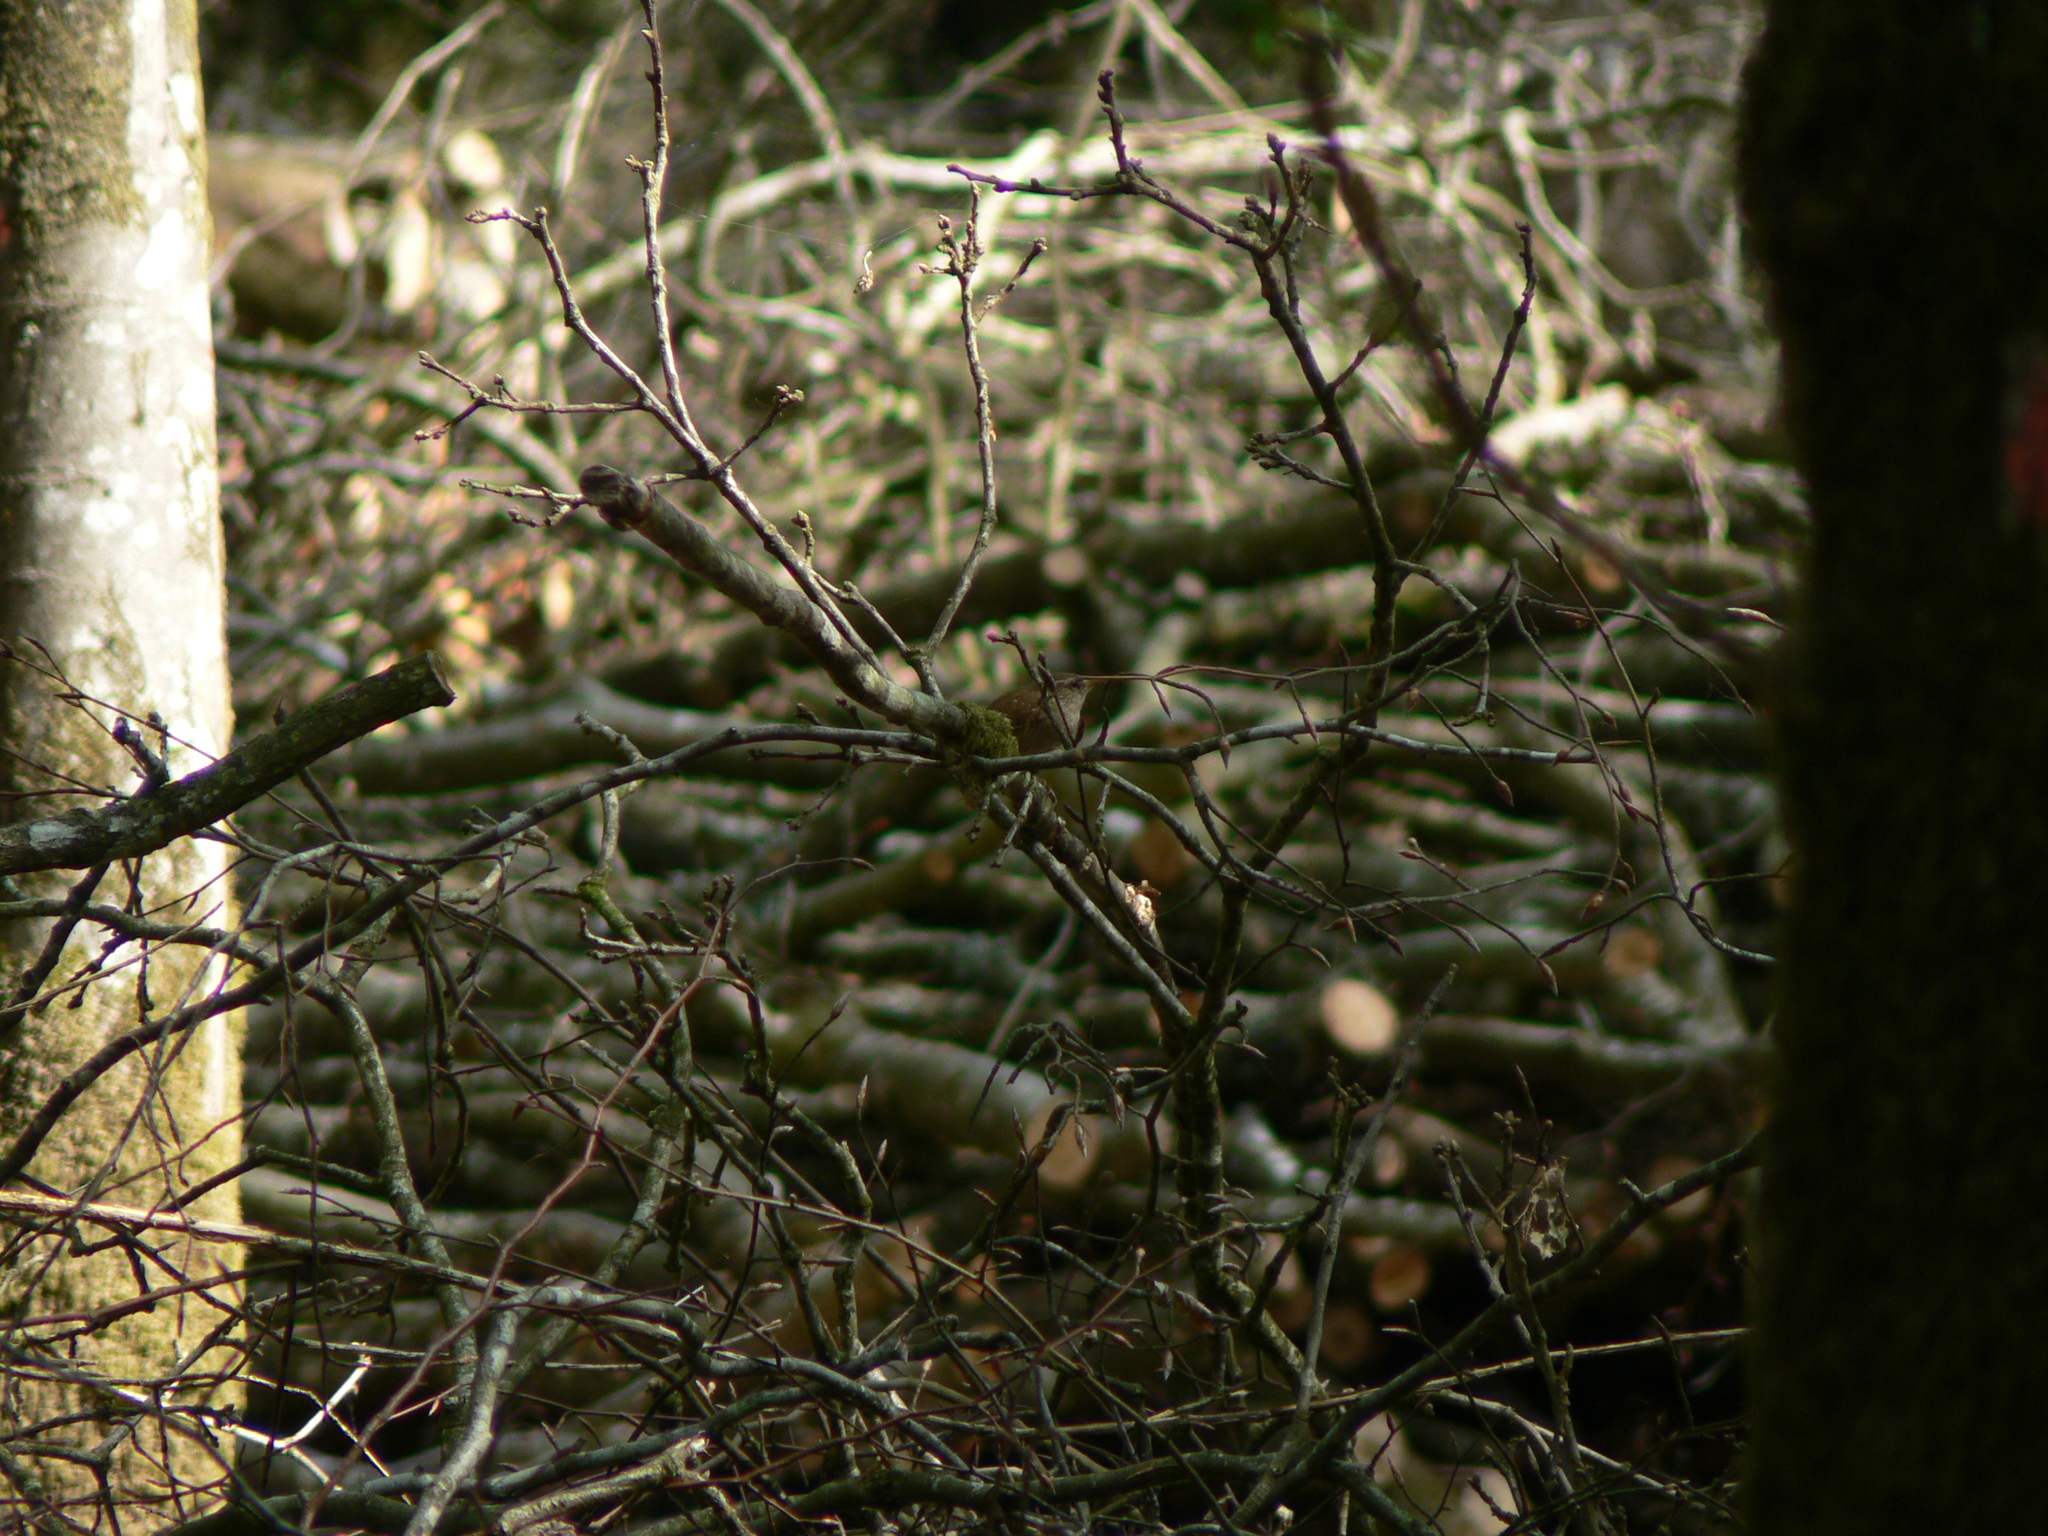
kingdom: Animalia
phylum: Chordata
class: Aves
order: Passeriformes
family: Troglodytidae
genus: Troglodytes
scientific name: Troglodytes troglodytes
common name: Eurasian wren
